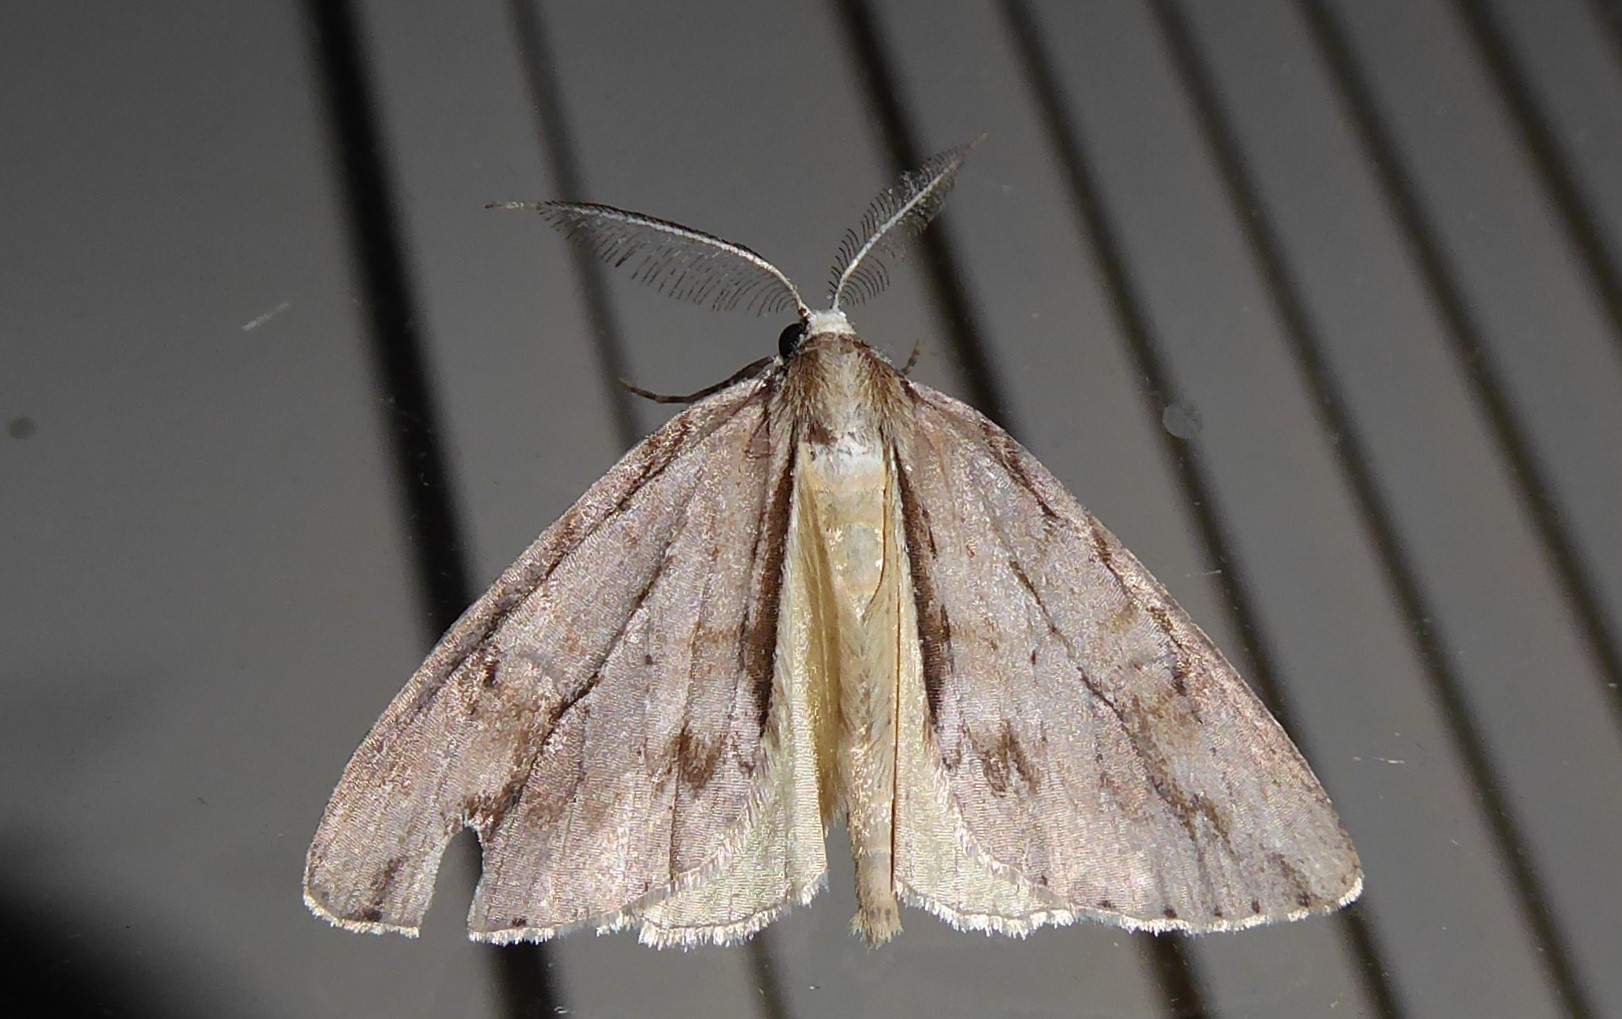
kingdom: Animalia
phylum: Arthropoda
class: Insecta
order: Lepidoptera
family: Geometridae
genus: Pseudocoremia
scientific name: Pseudocoremia lupinata
